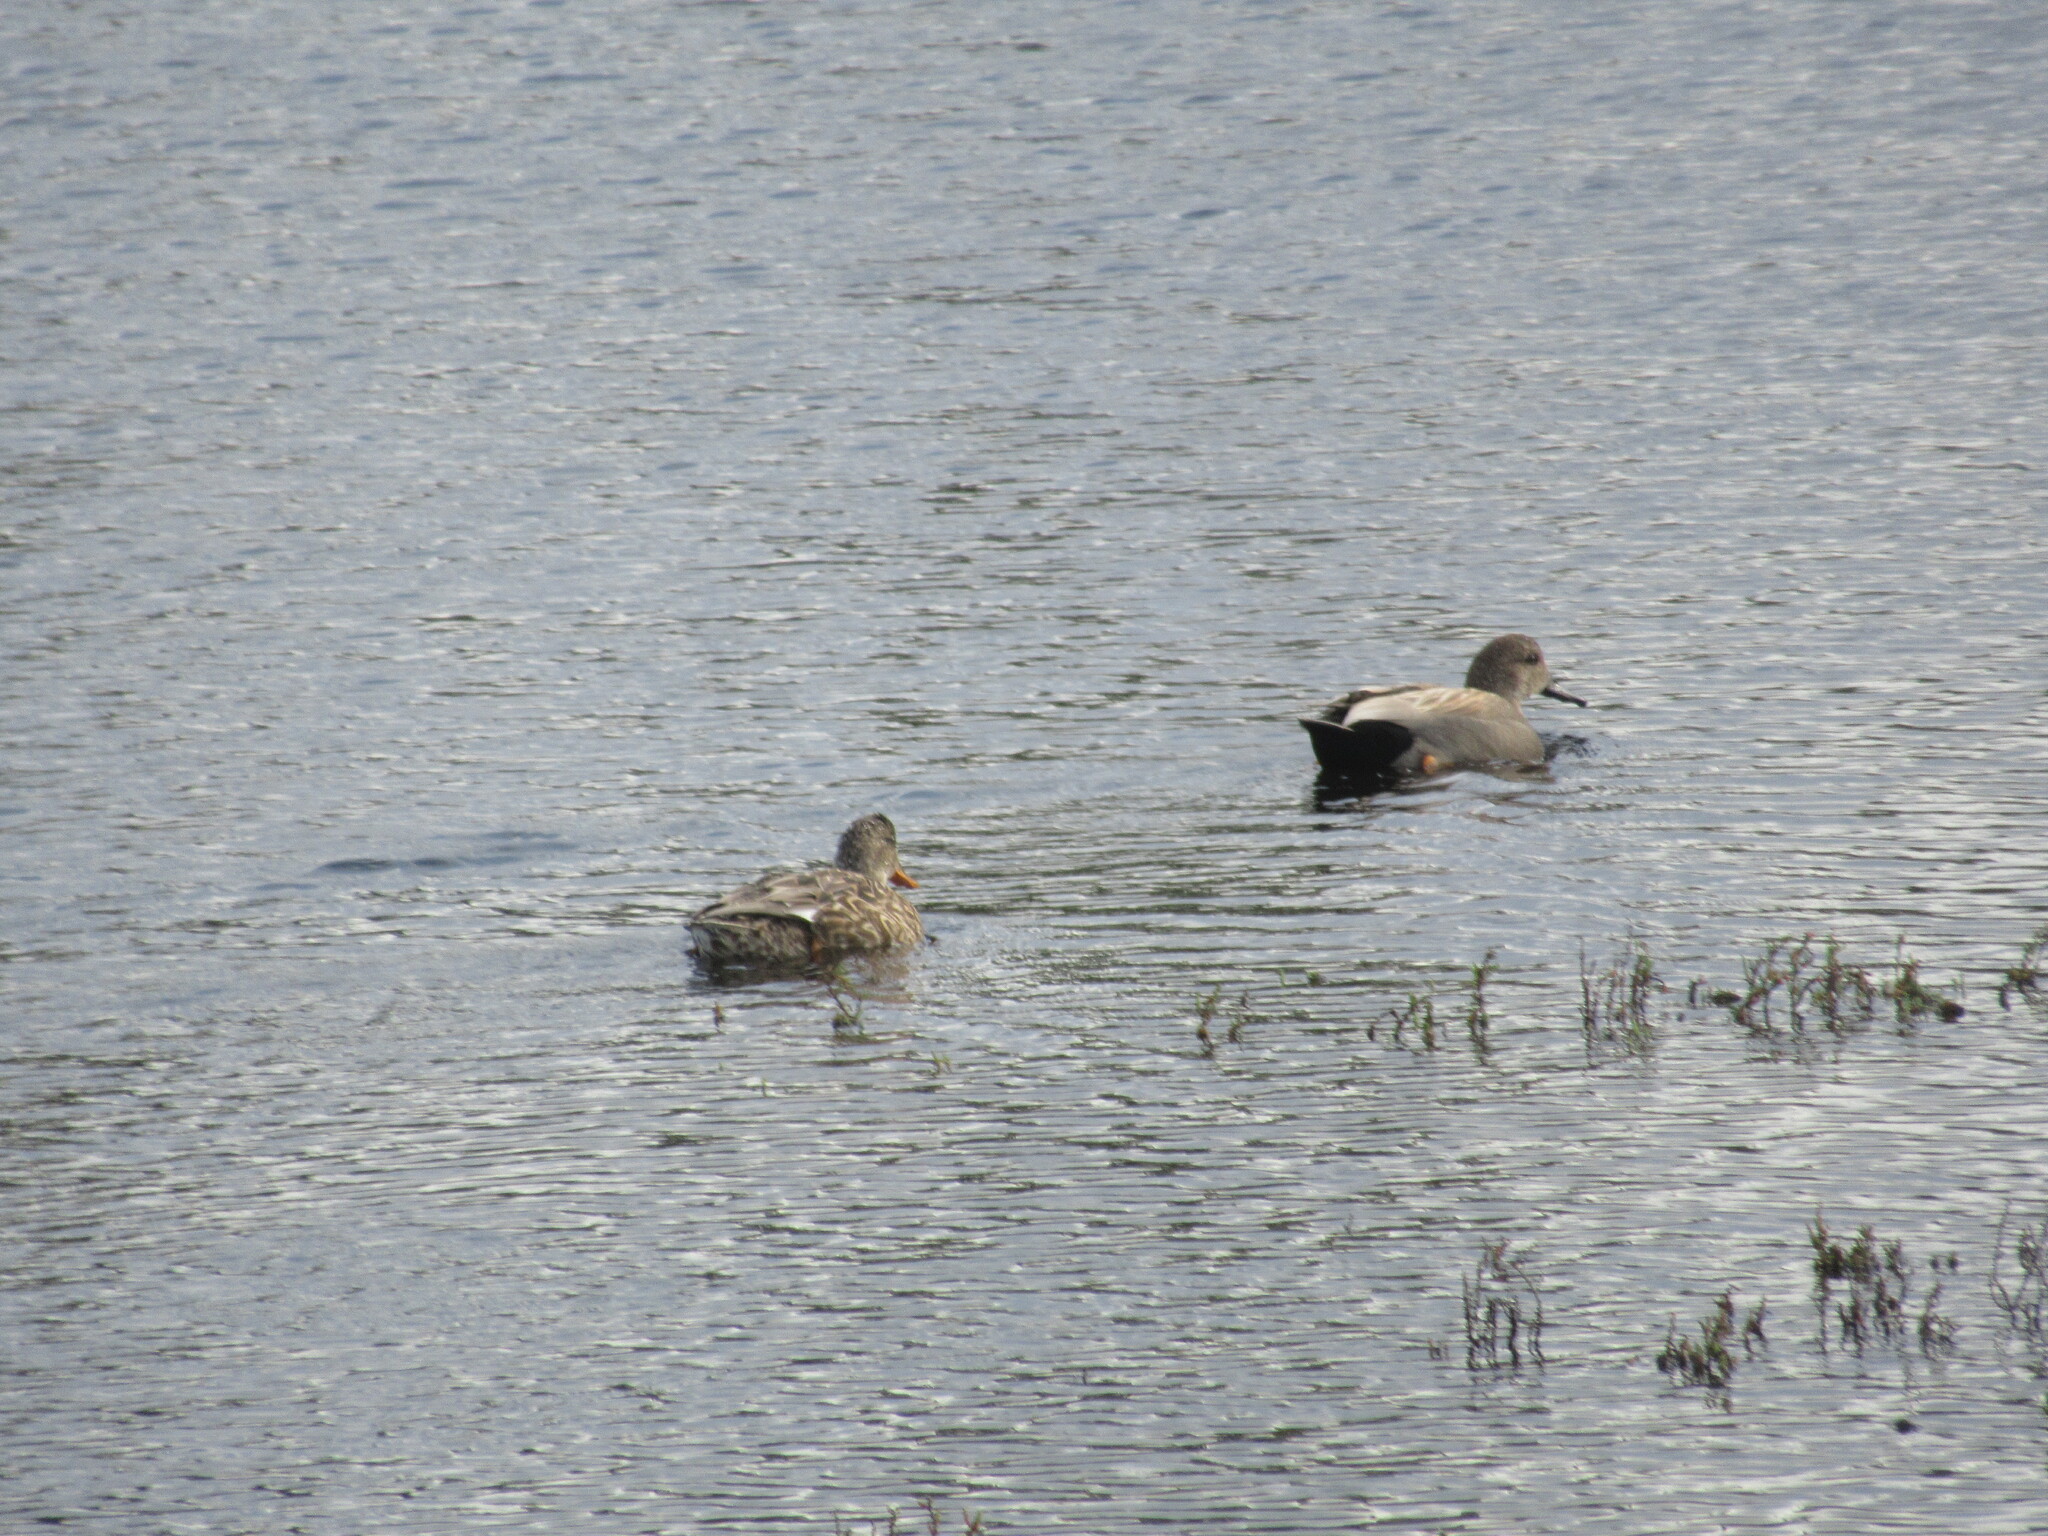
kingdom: Animalia
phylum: Chordata
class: Aves
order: Anseriformes
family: Anatidae
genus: Mareca
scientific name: Mareca strepera
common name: Gadwall
